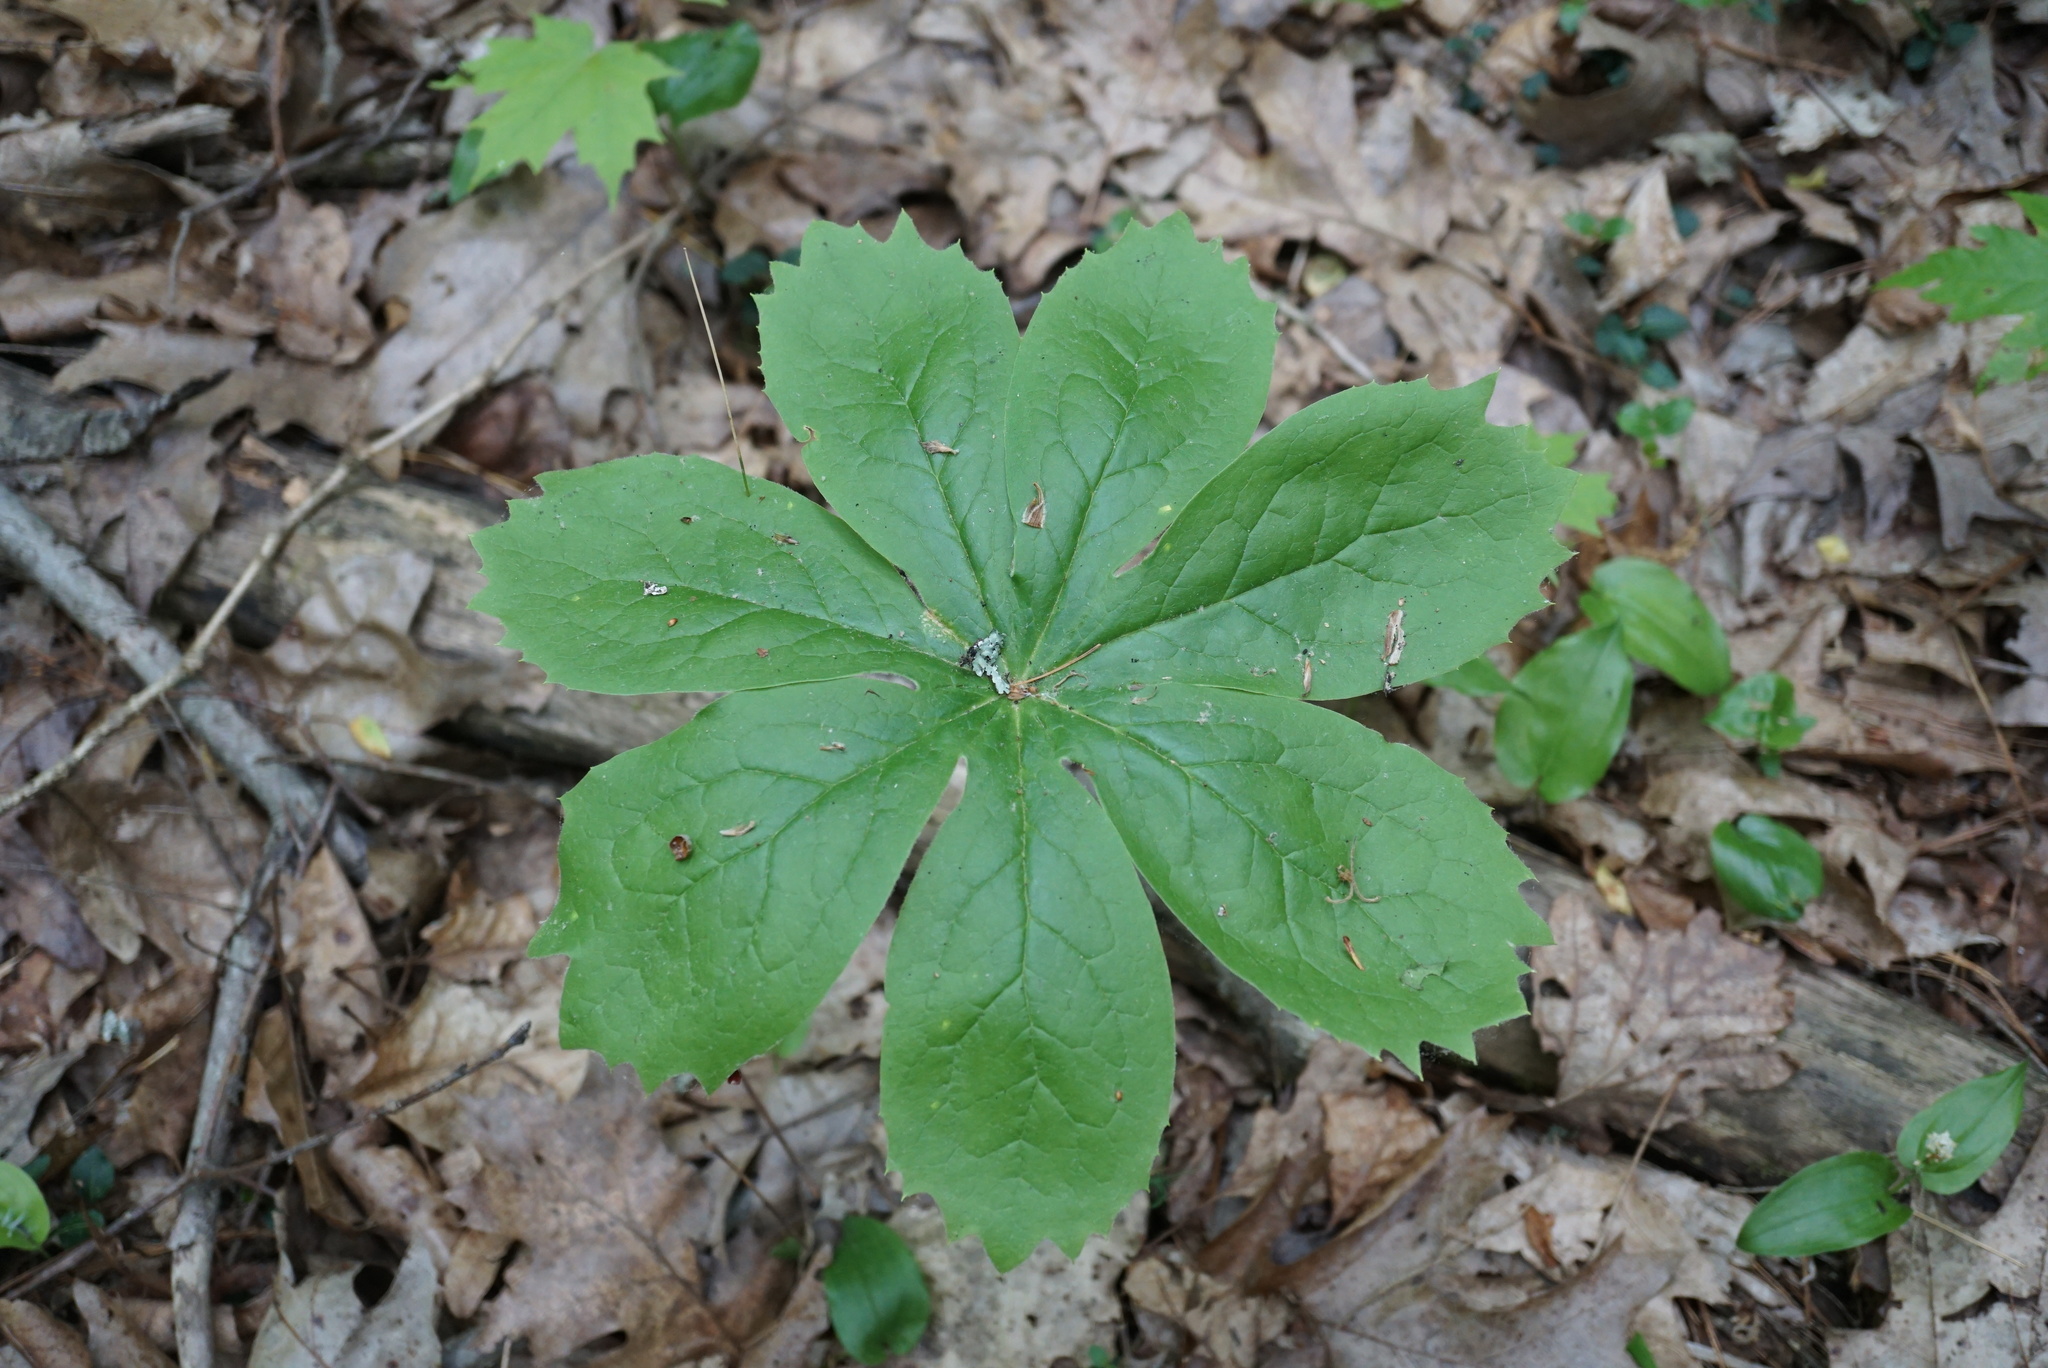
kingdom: Plantae
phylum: Tracheophyta
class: Magnoliopsida
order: Ranunculales
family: Berberidaceae
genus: Podophyllum
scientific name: Podophyllum peltatum
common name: Wild mandrake
